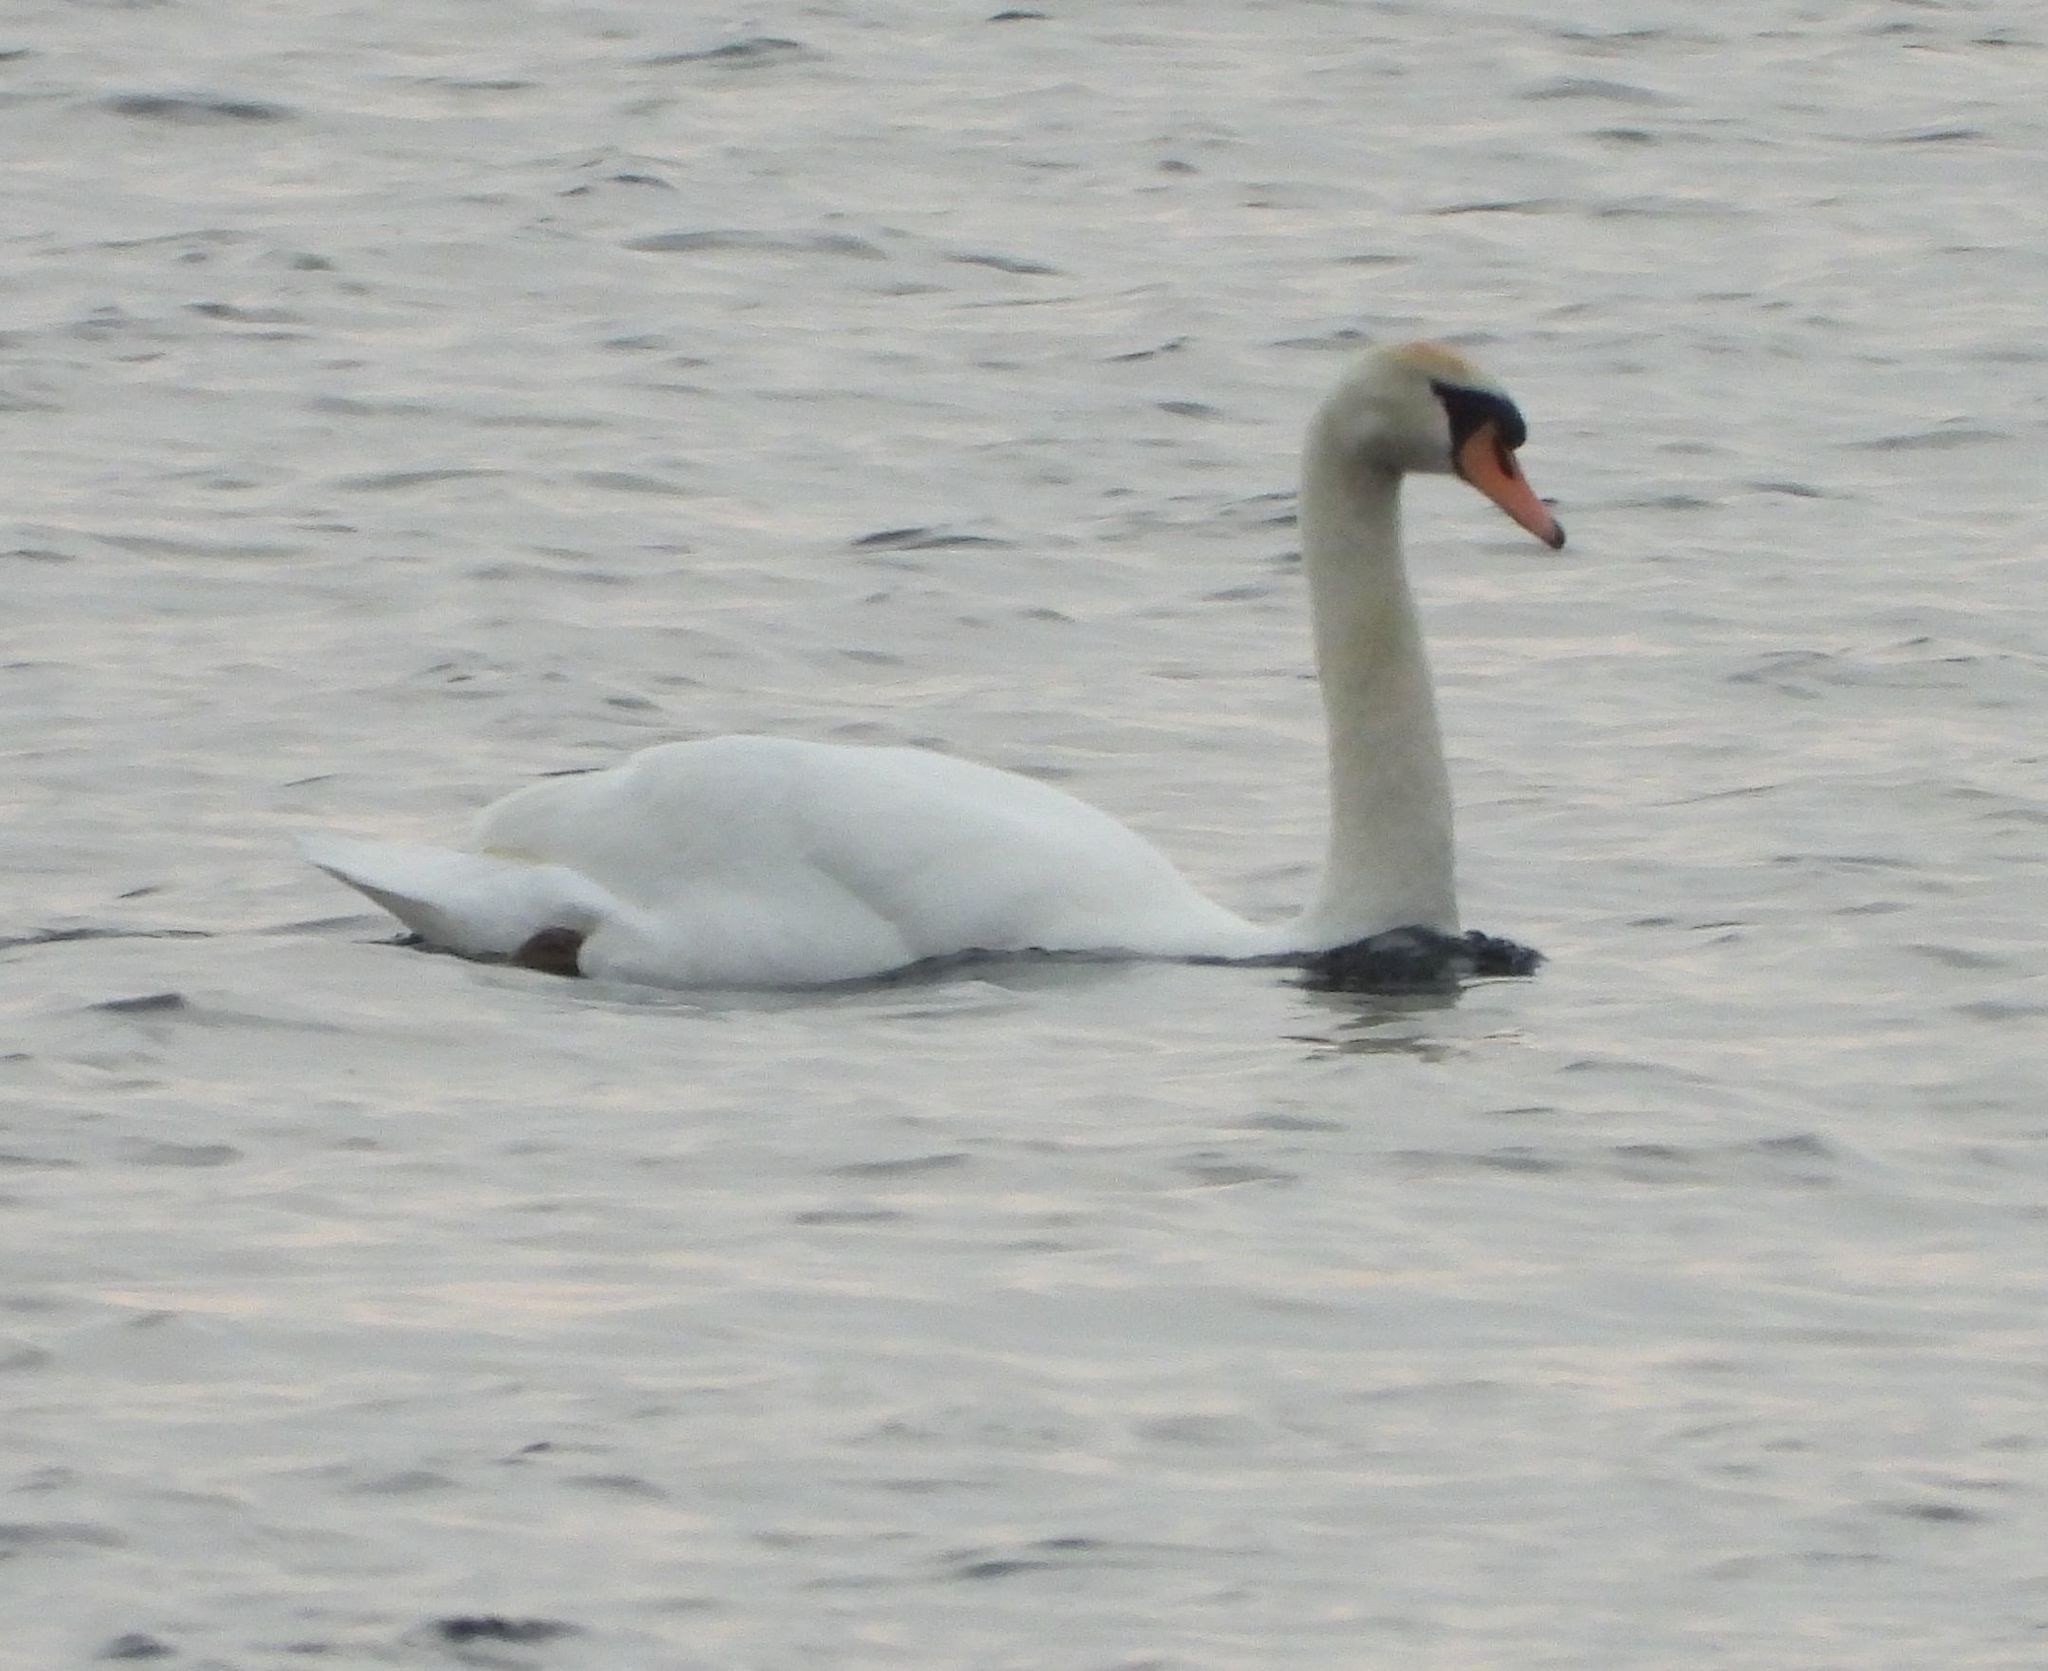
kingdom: Animalia
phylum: Chordata
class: Aves
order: Anseriformes
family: Anatidae
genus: Cygnus
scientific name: Cygnus olor
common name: Mute swan
